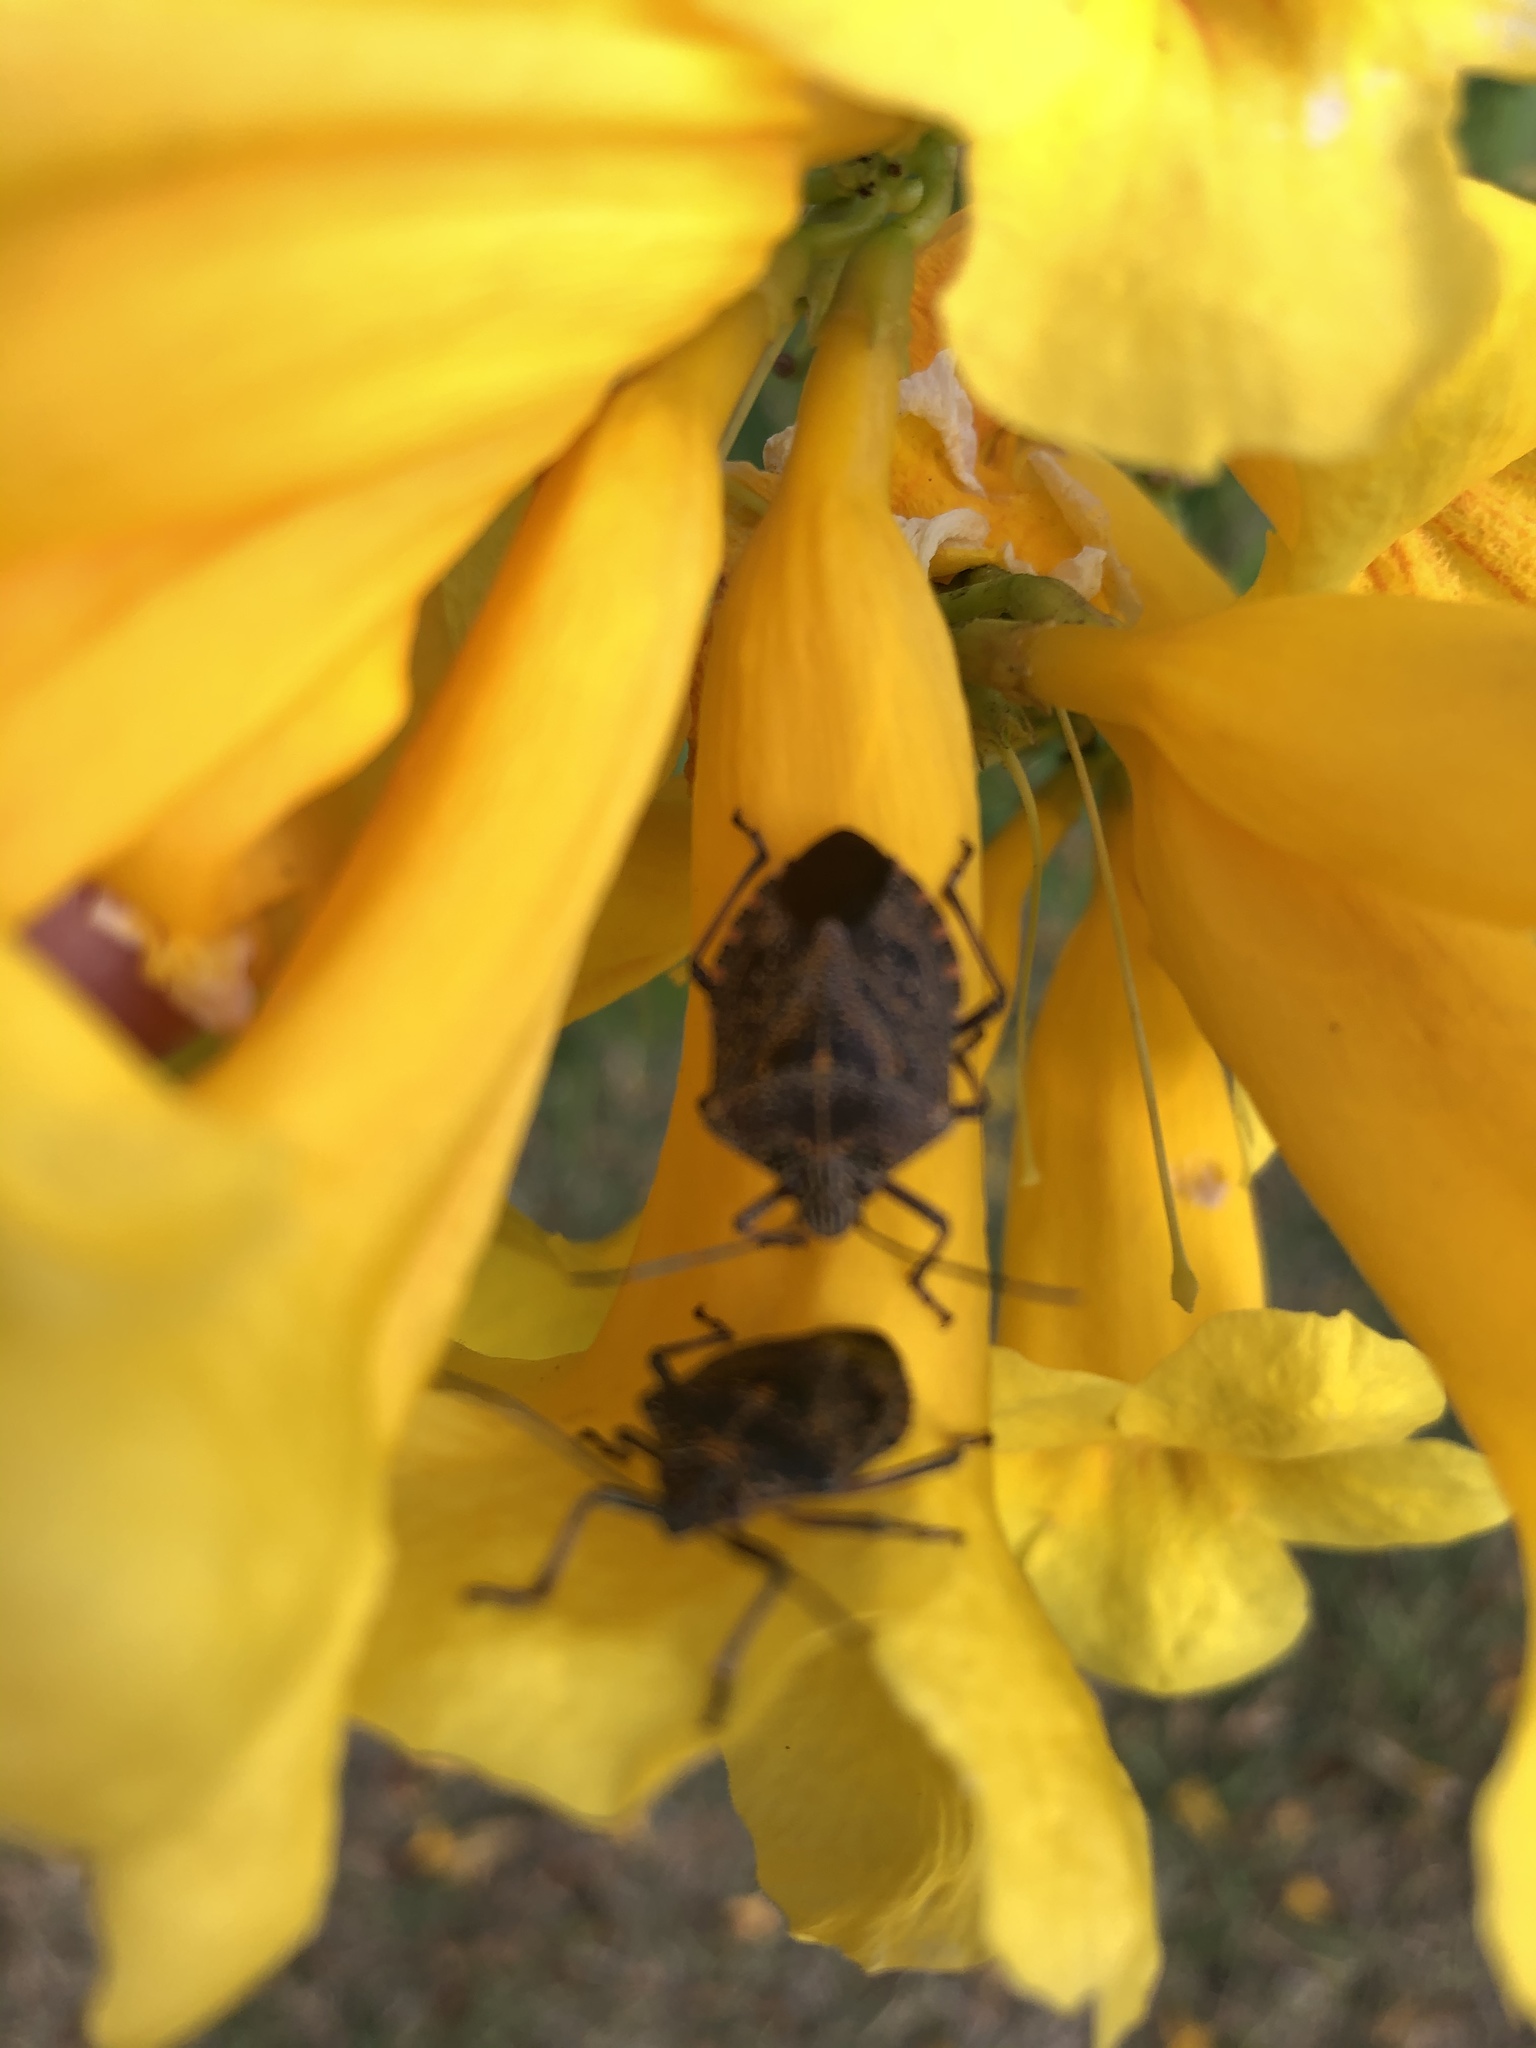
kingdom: Animalia
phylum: Arthropoda
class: Insecta
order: Hemiptera
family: Pentatomidae
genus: Pellaea
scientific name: Pellaea stictica
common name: Stink bug
